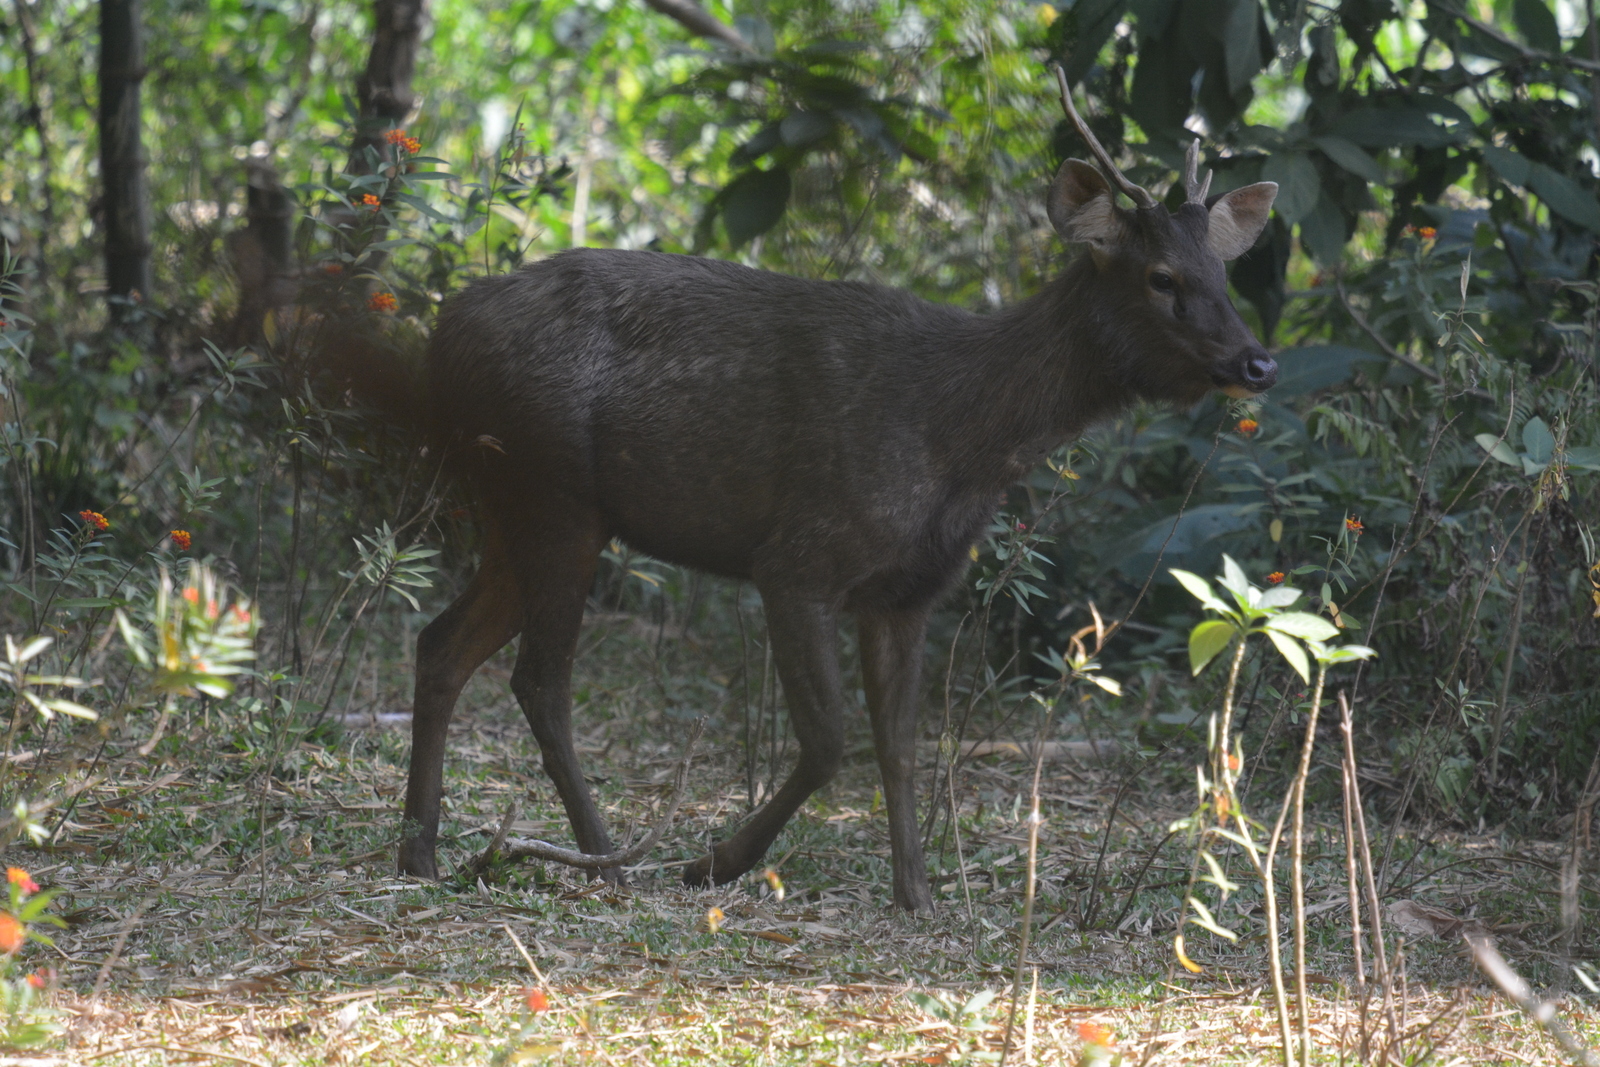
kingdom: Animalia
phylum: Chordata
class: Mammalia
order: Artiodactyla
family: Cervidae
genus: Rusa
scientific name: Rusa unicolor
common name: Sambar
